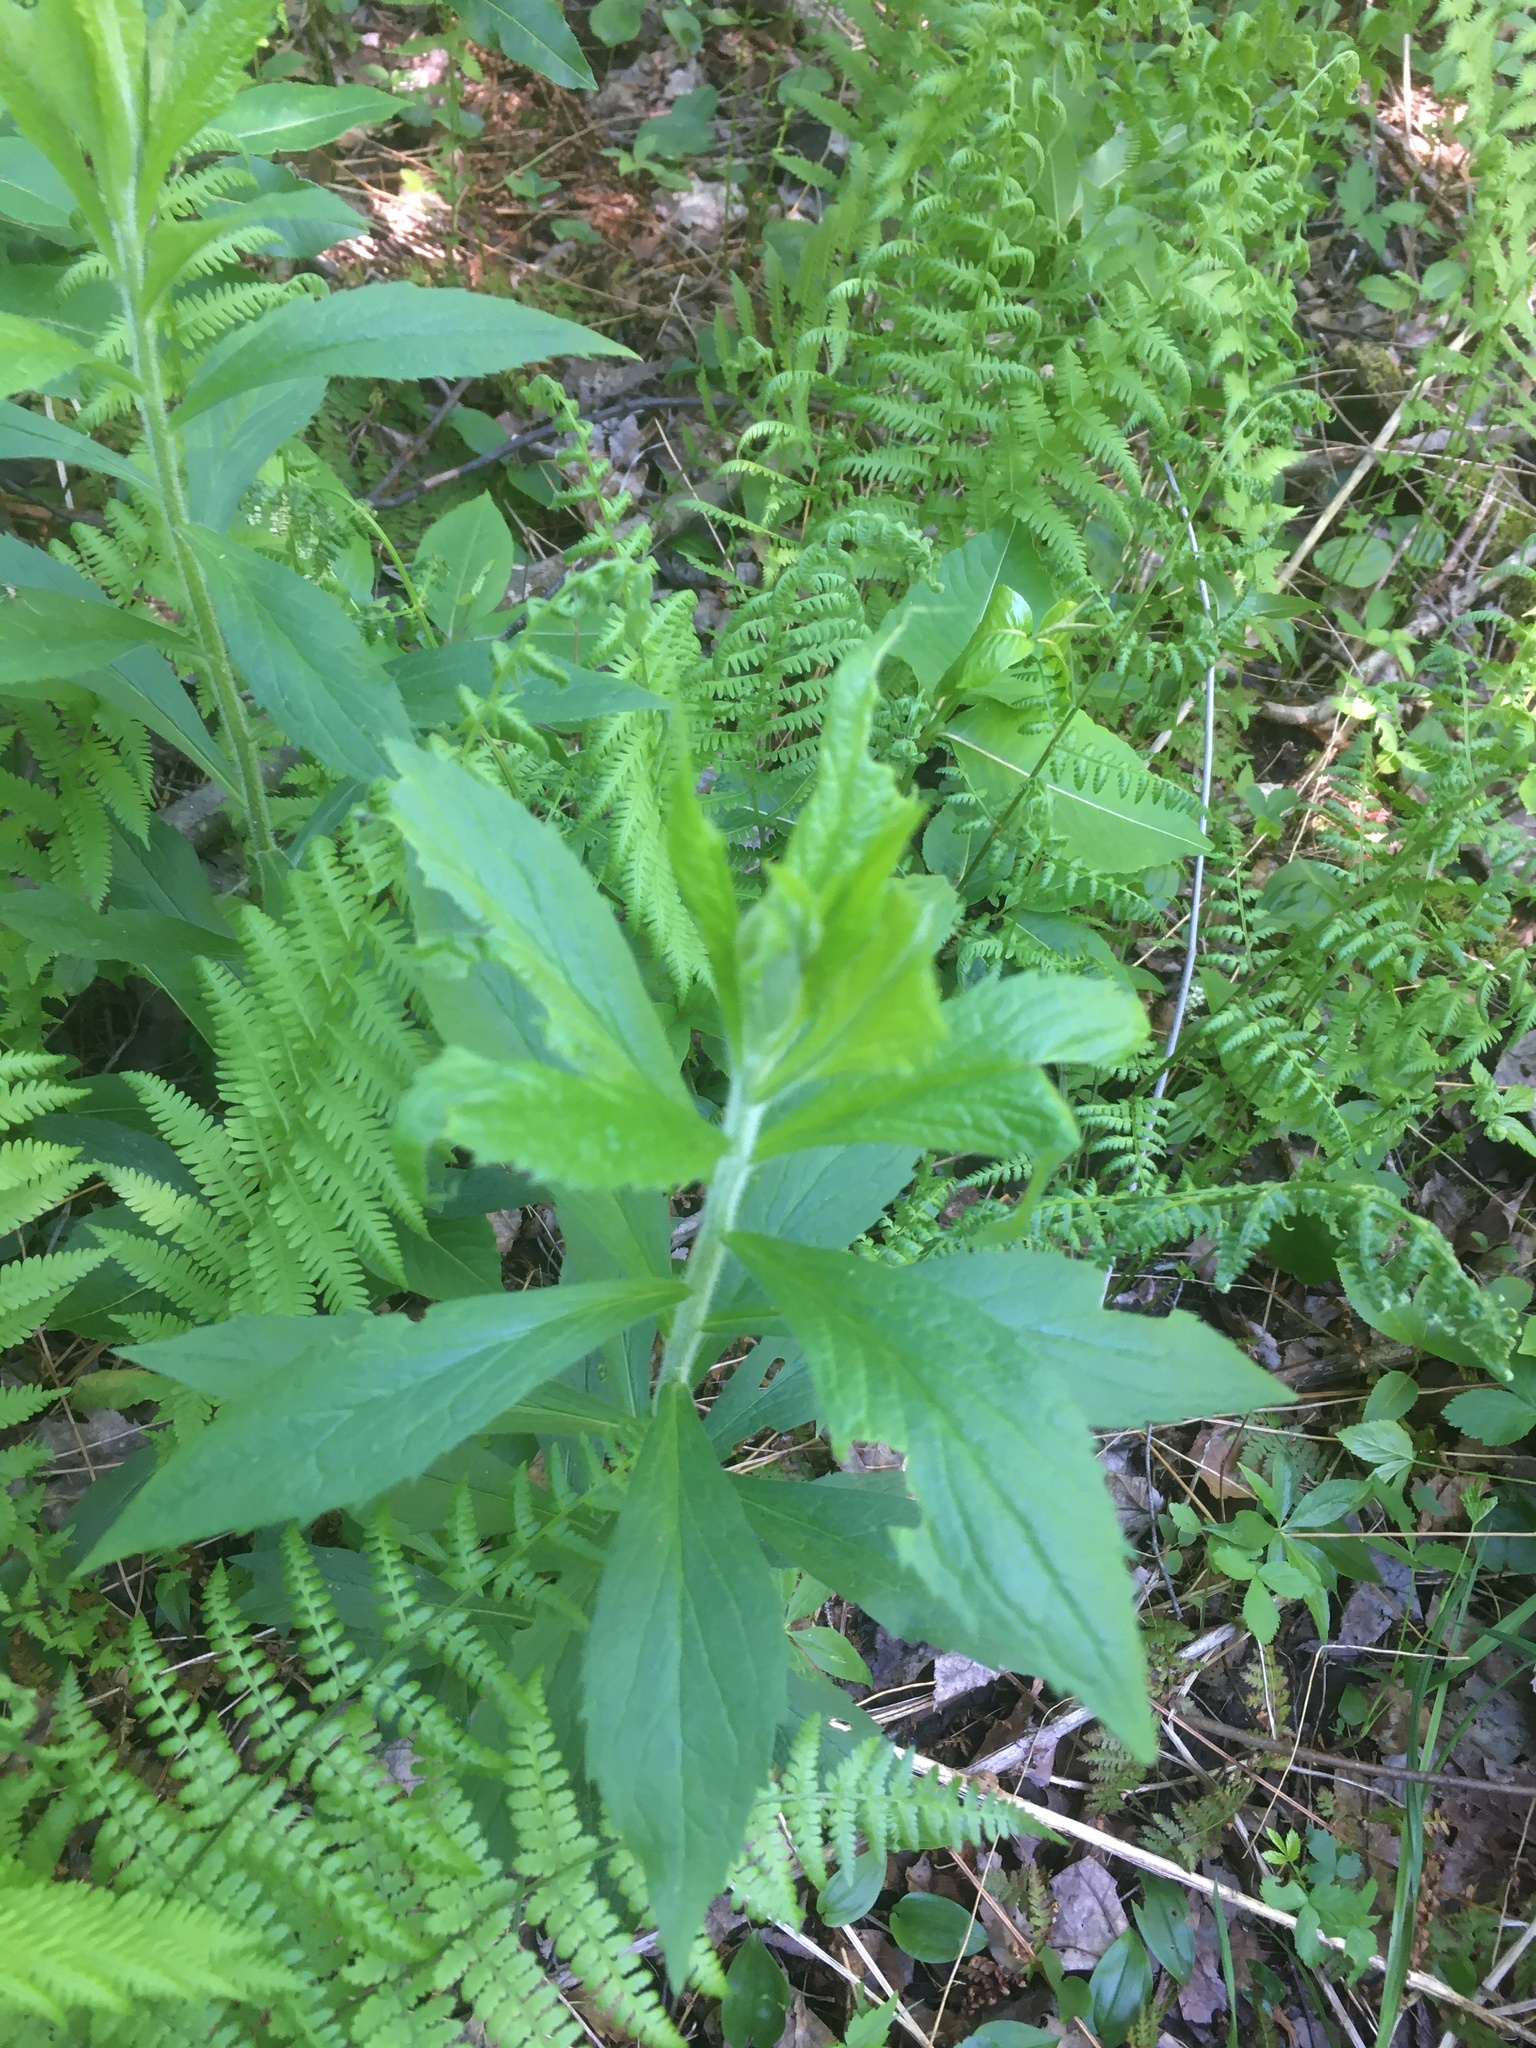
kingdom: Plantae
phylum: Tracheophyta
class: Magnoliopsida
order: Asterales
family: Asteraceae
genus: Solidago
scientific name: Solidago rugosa
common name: Rough-stemmed goldenrod
